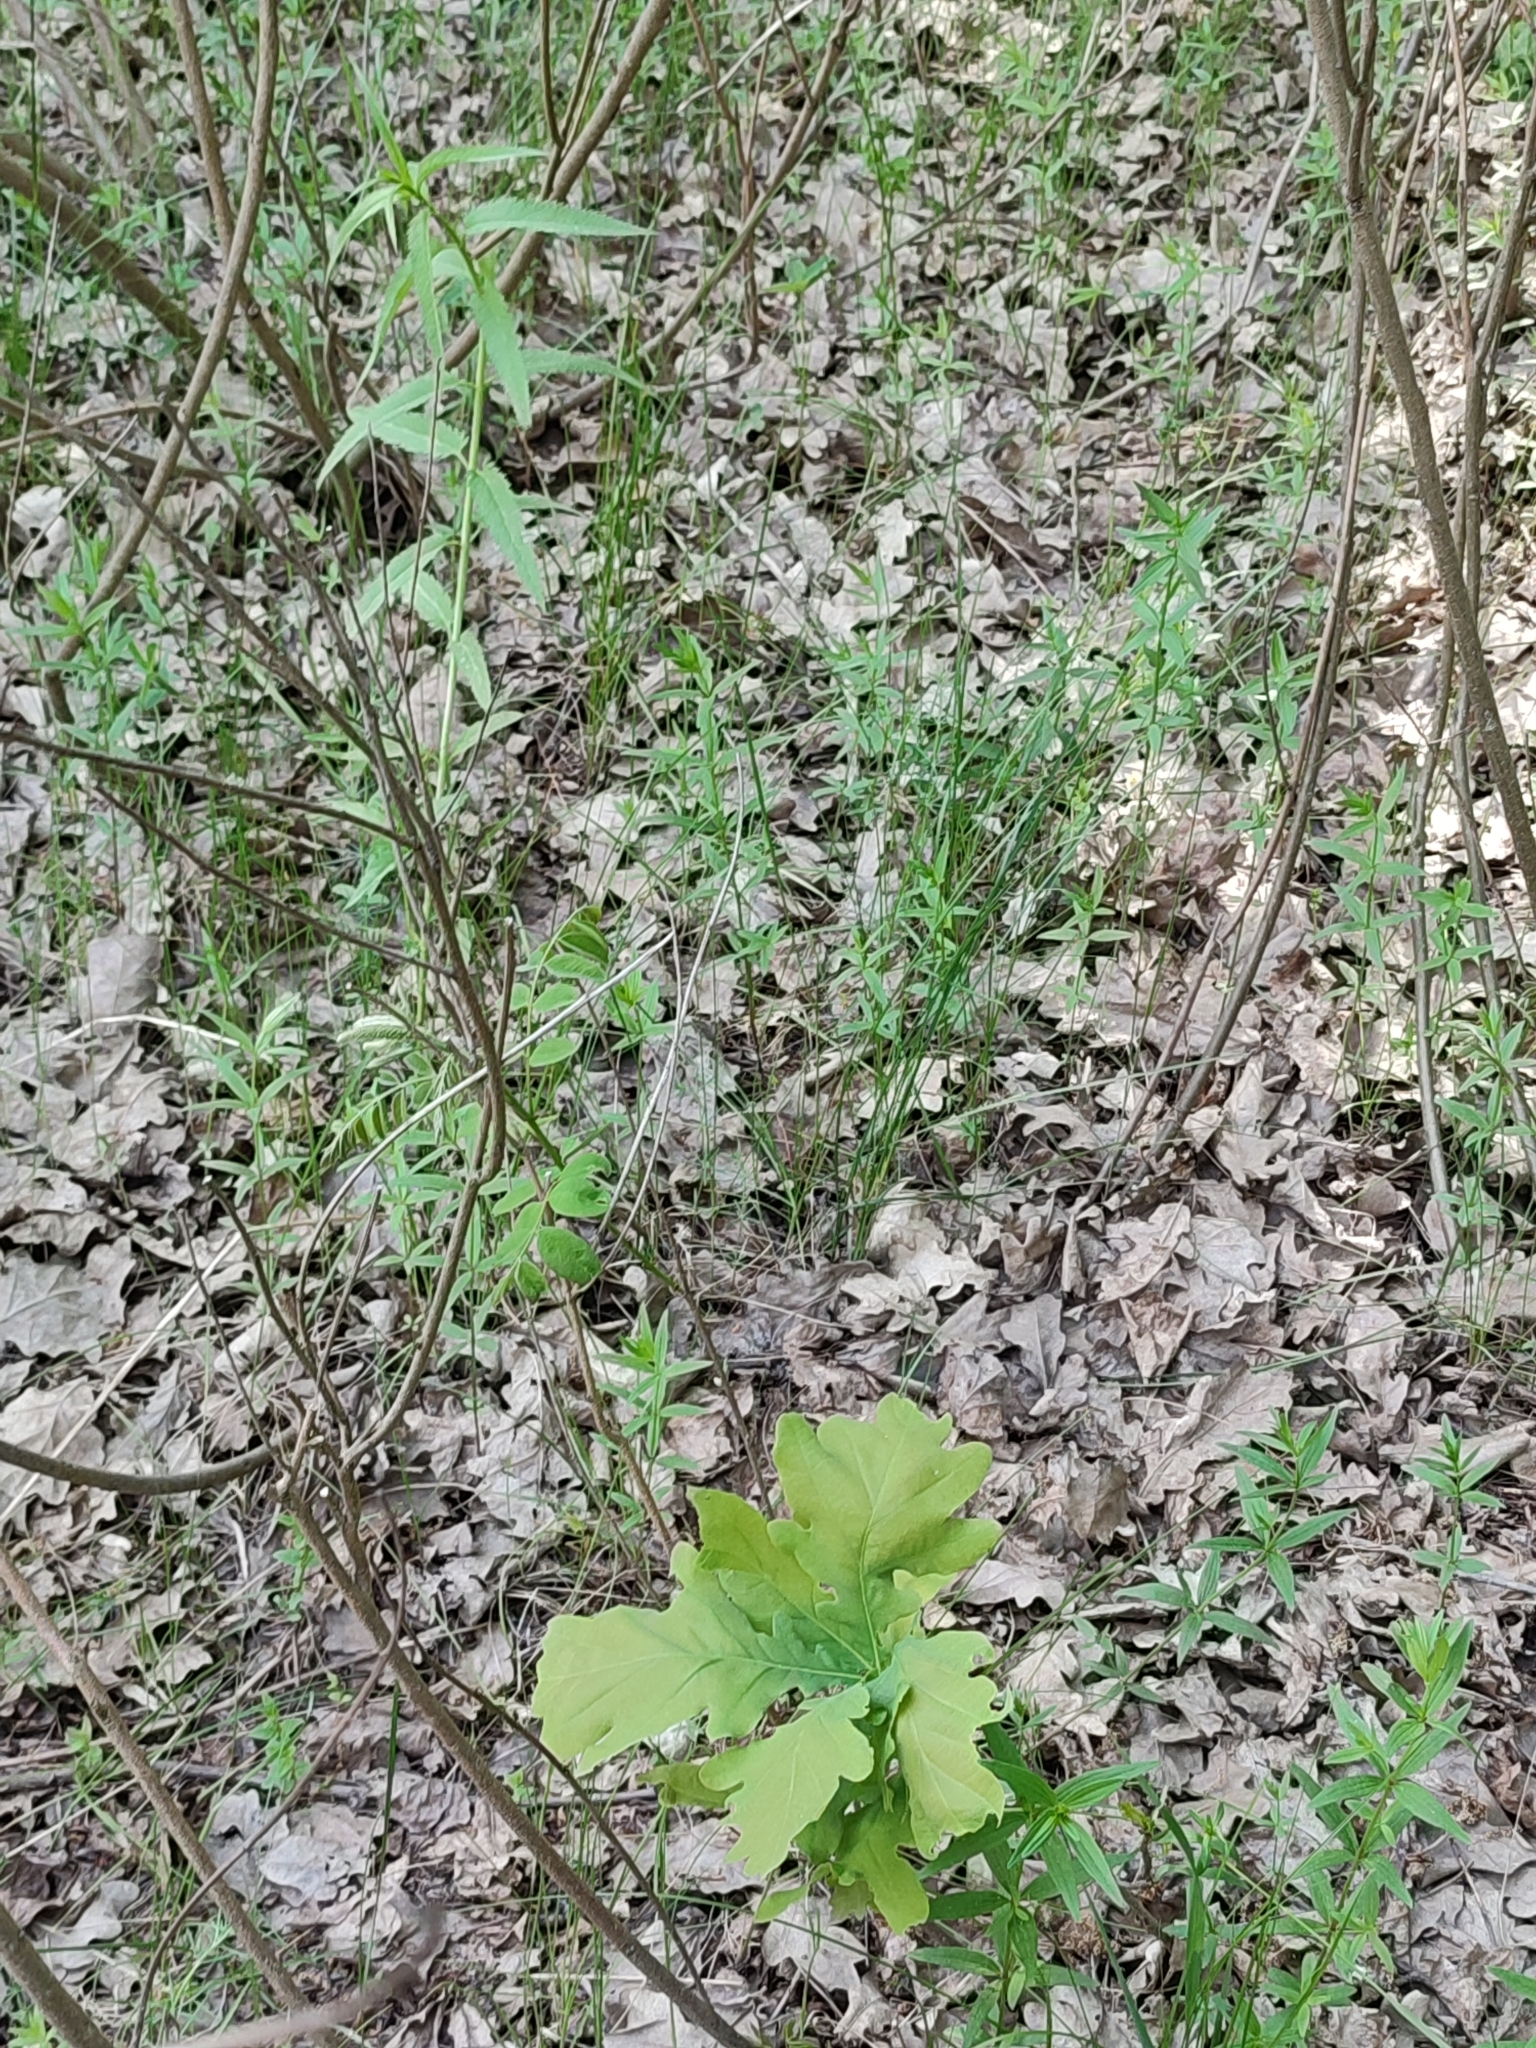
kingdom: Plantae
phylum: Tracheophyta
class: Magnoliopsida
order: Fagales
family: Fagaceae
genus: Quercus
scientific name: Quercus robur
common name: Pedunculate oak
